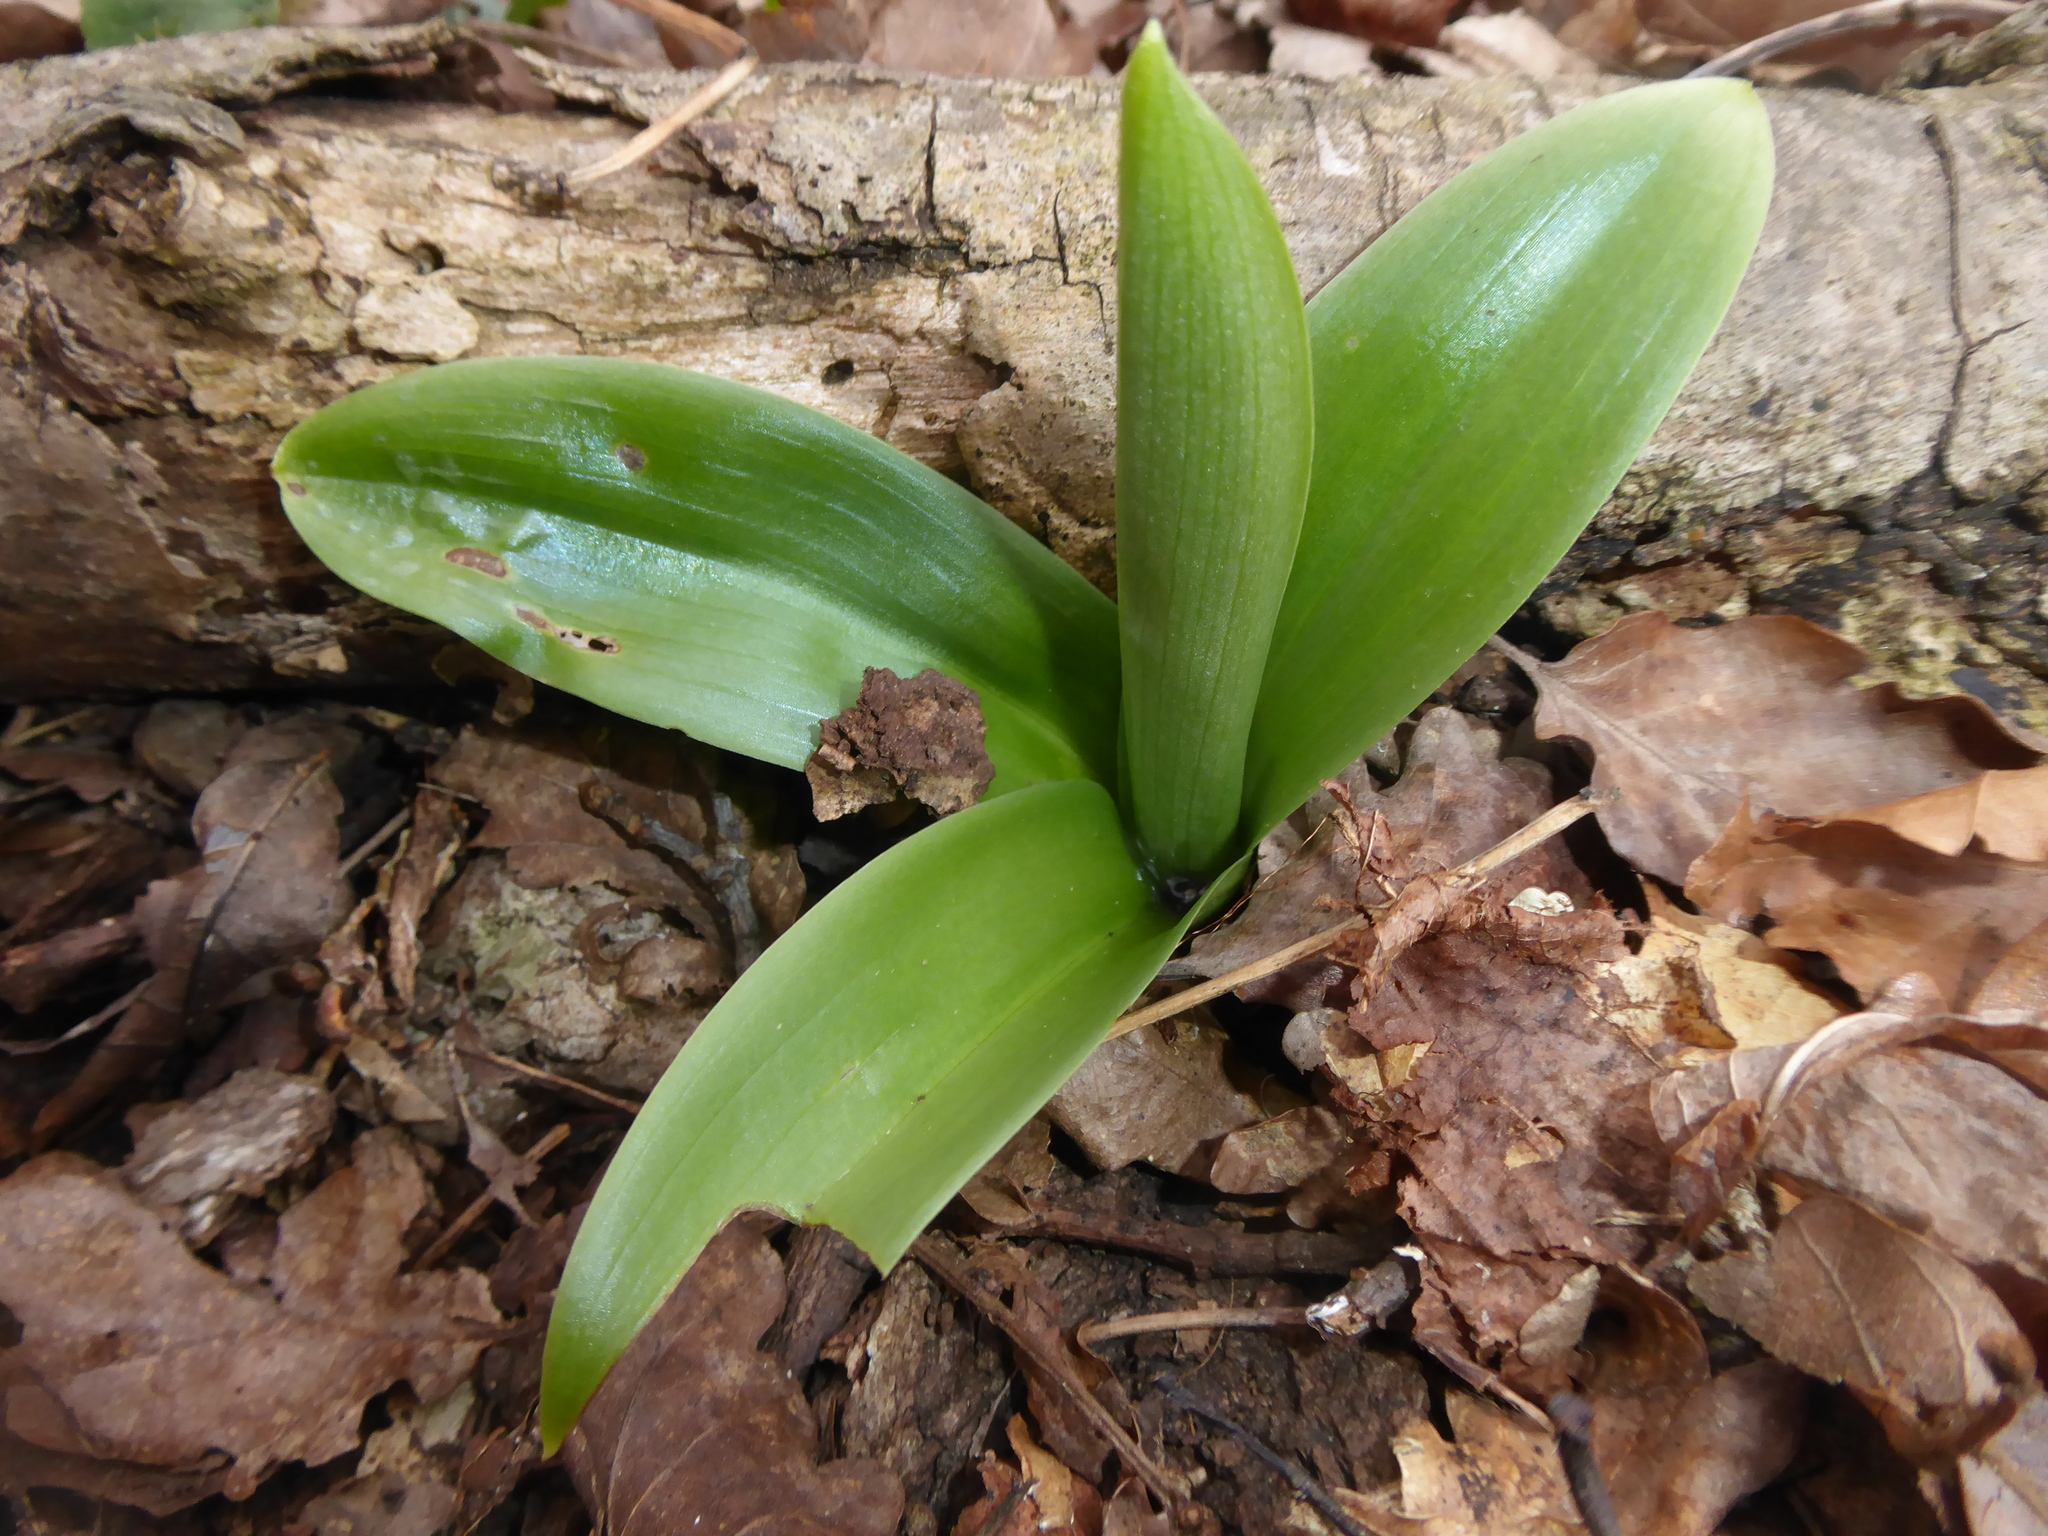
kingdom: Plantae
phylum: Tracheophyta
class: Liliopsida
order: Asparagales
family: Orchidaceae
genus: Orchis
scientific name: Orchis pallens
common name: Pale-flowered orchid
